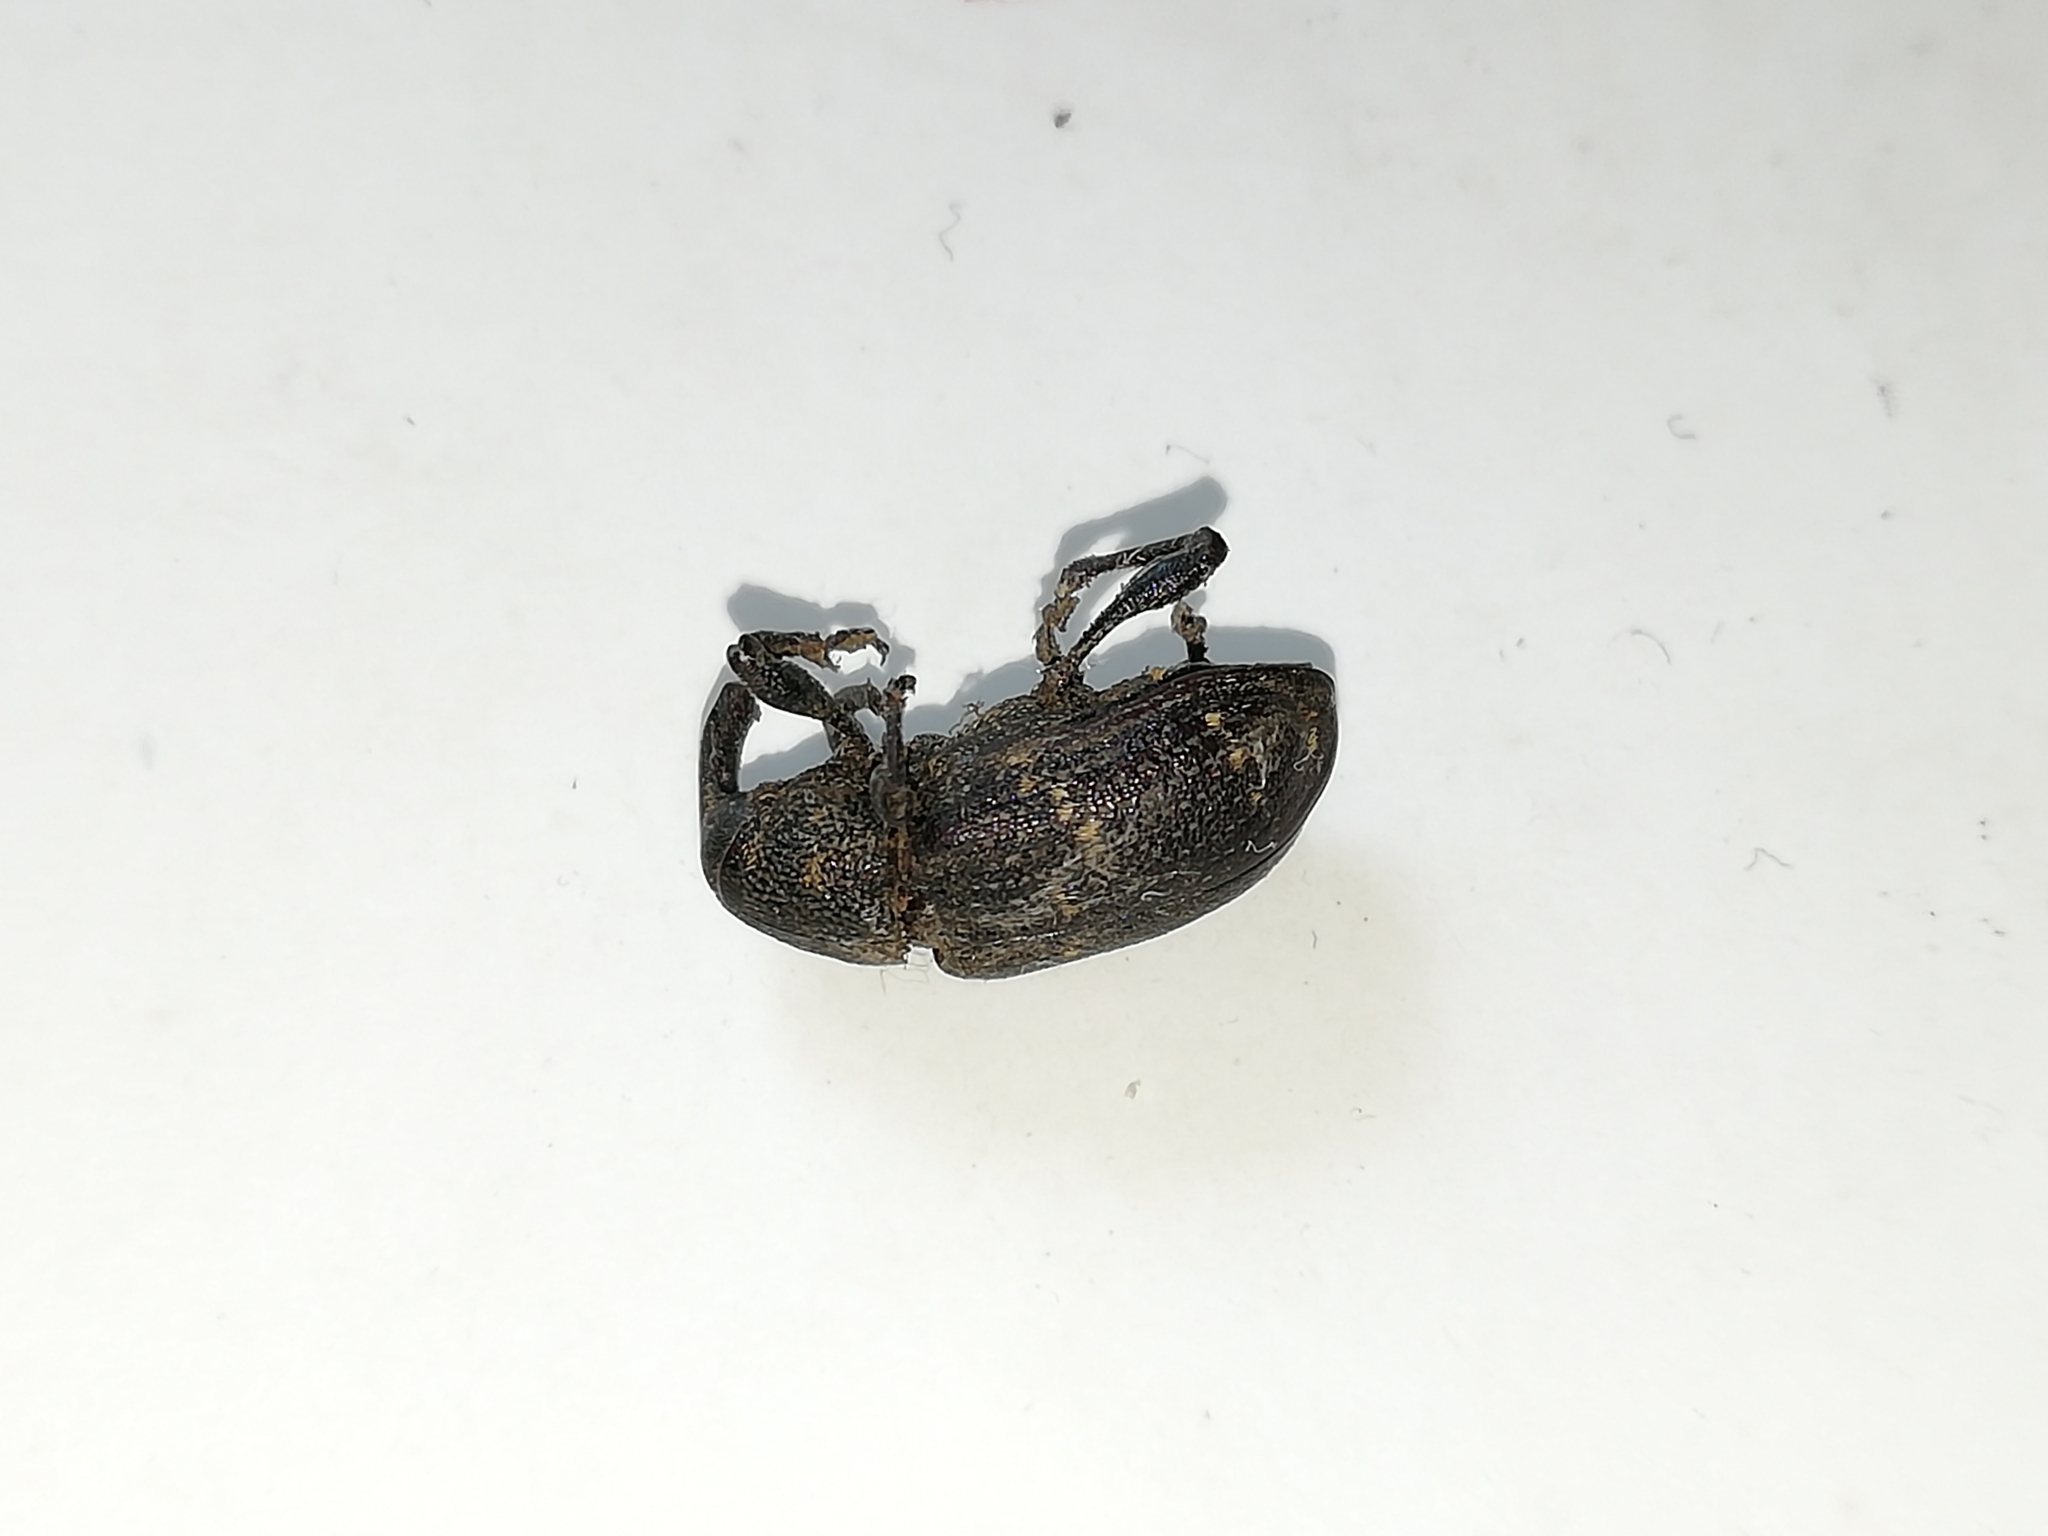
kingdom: Animalia
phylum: Arthropoda
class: Insecta
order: Coleoptera
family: Curculionidae
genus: Hylobius
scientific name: Hylobius abietis
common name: Large pine weevil
